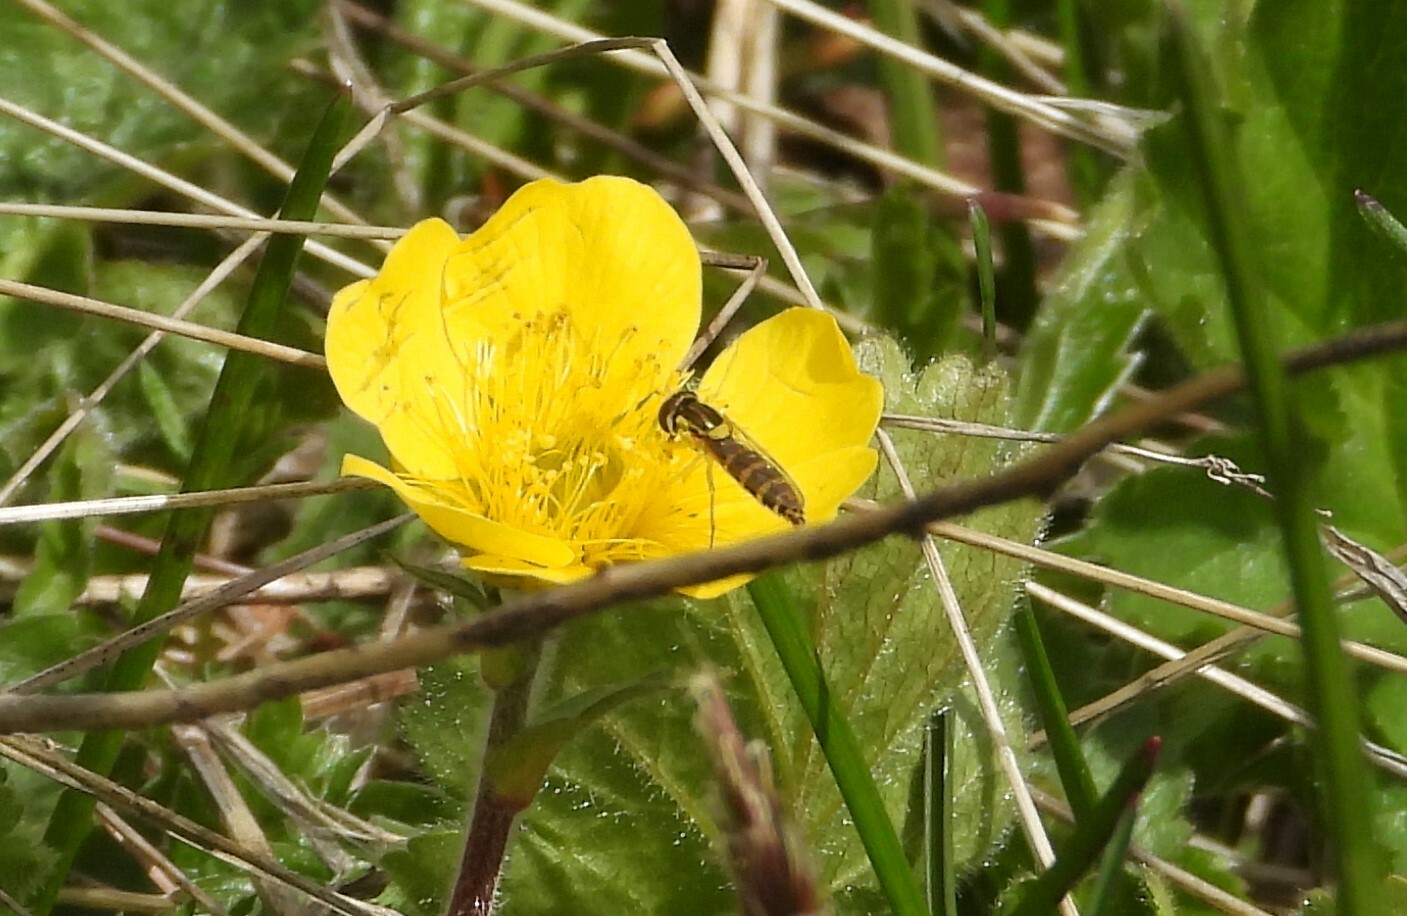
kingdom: Animalia
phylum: Arthropoda
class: Insecta
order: Diptera
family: Syrphidae
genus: Sphaerophoria
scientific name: Sphaerophoria
